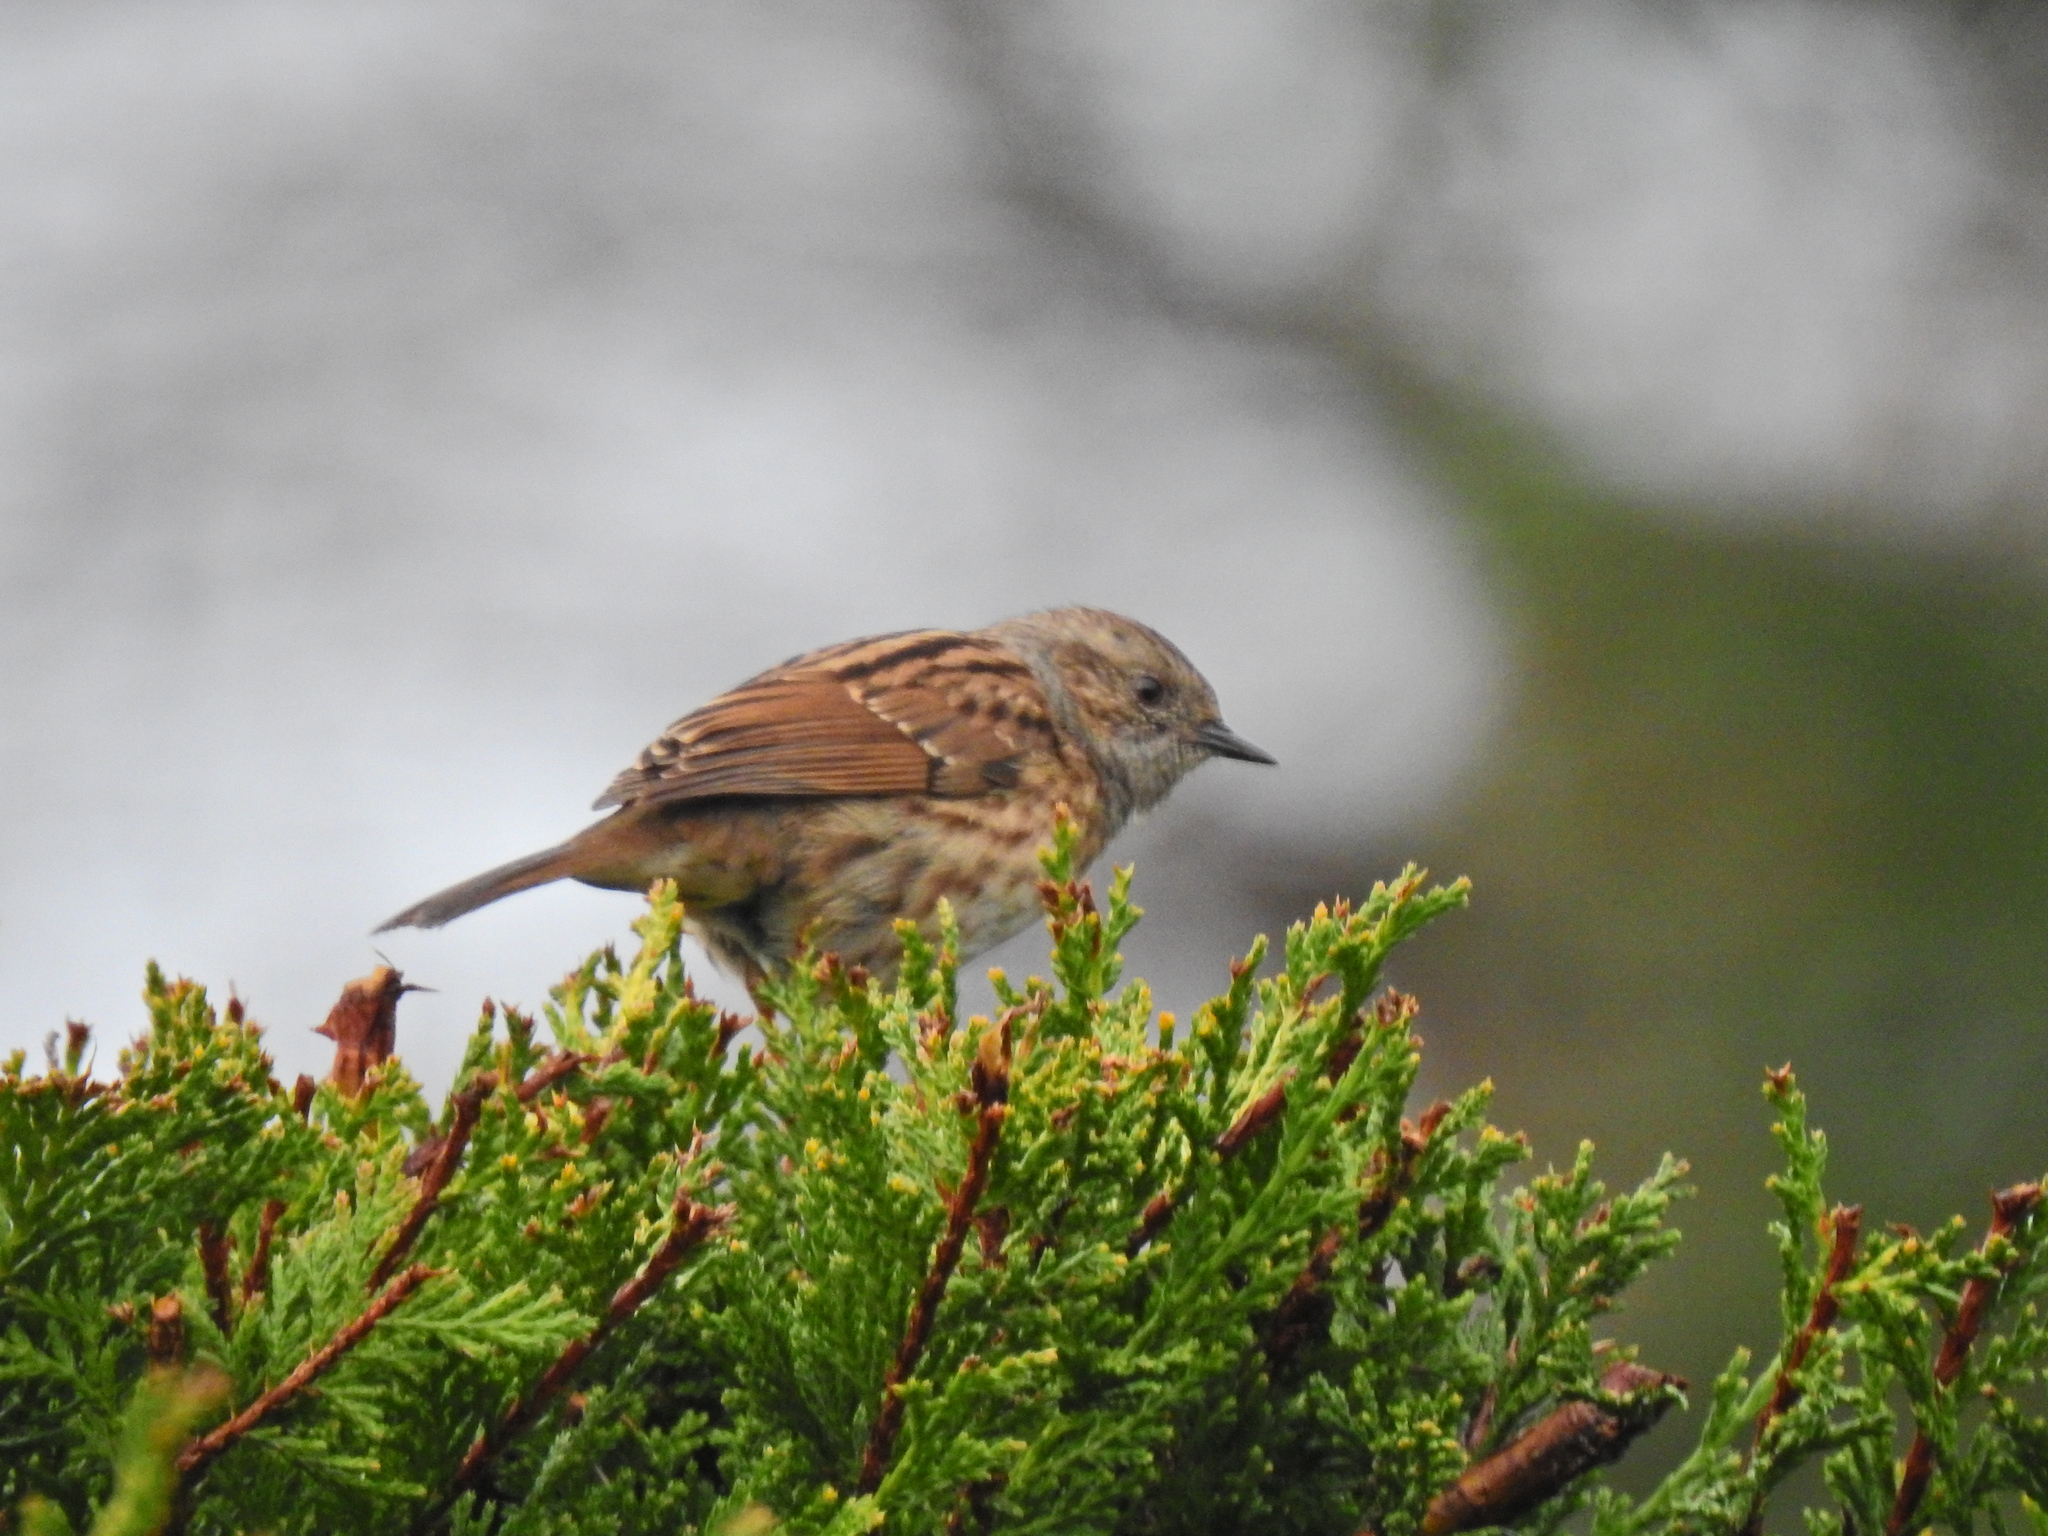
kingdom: Animalia
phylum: Chordata
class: Aves
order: Passeriformes
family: Prunellidae
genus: Prunella
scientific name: Prunella modularis
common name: Dunnock
